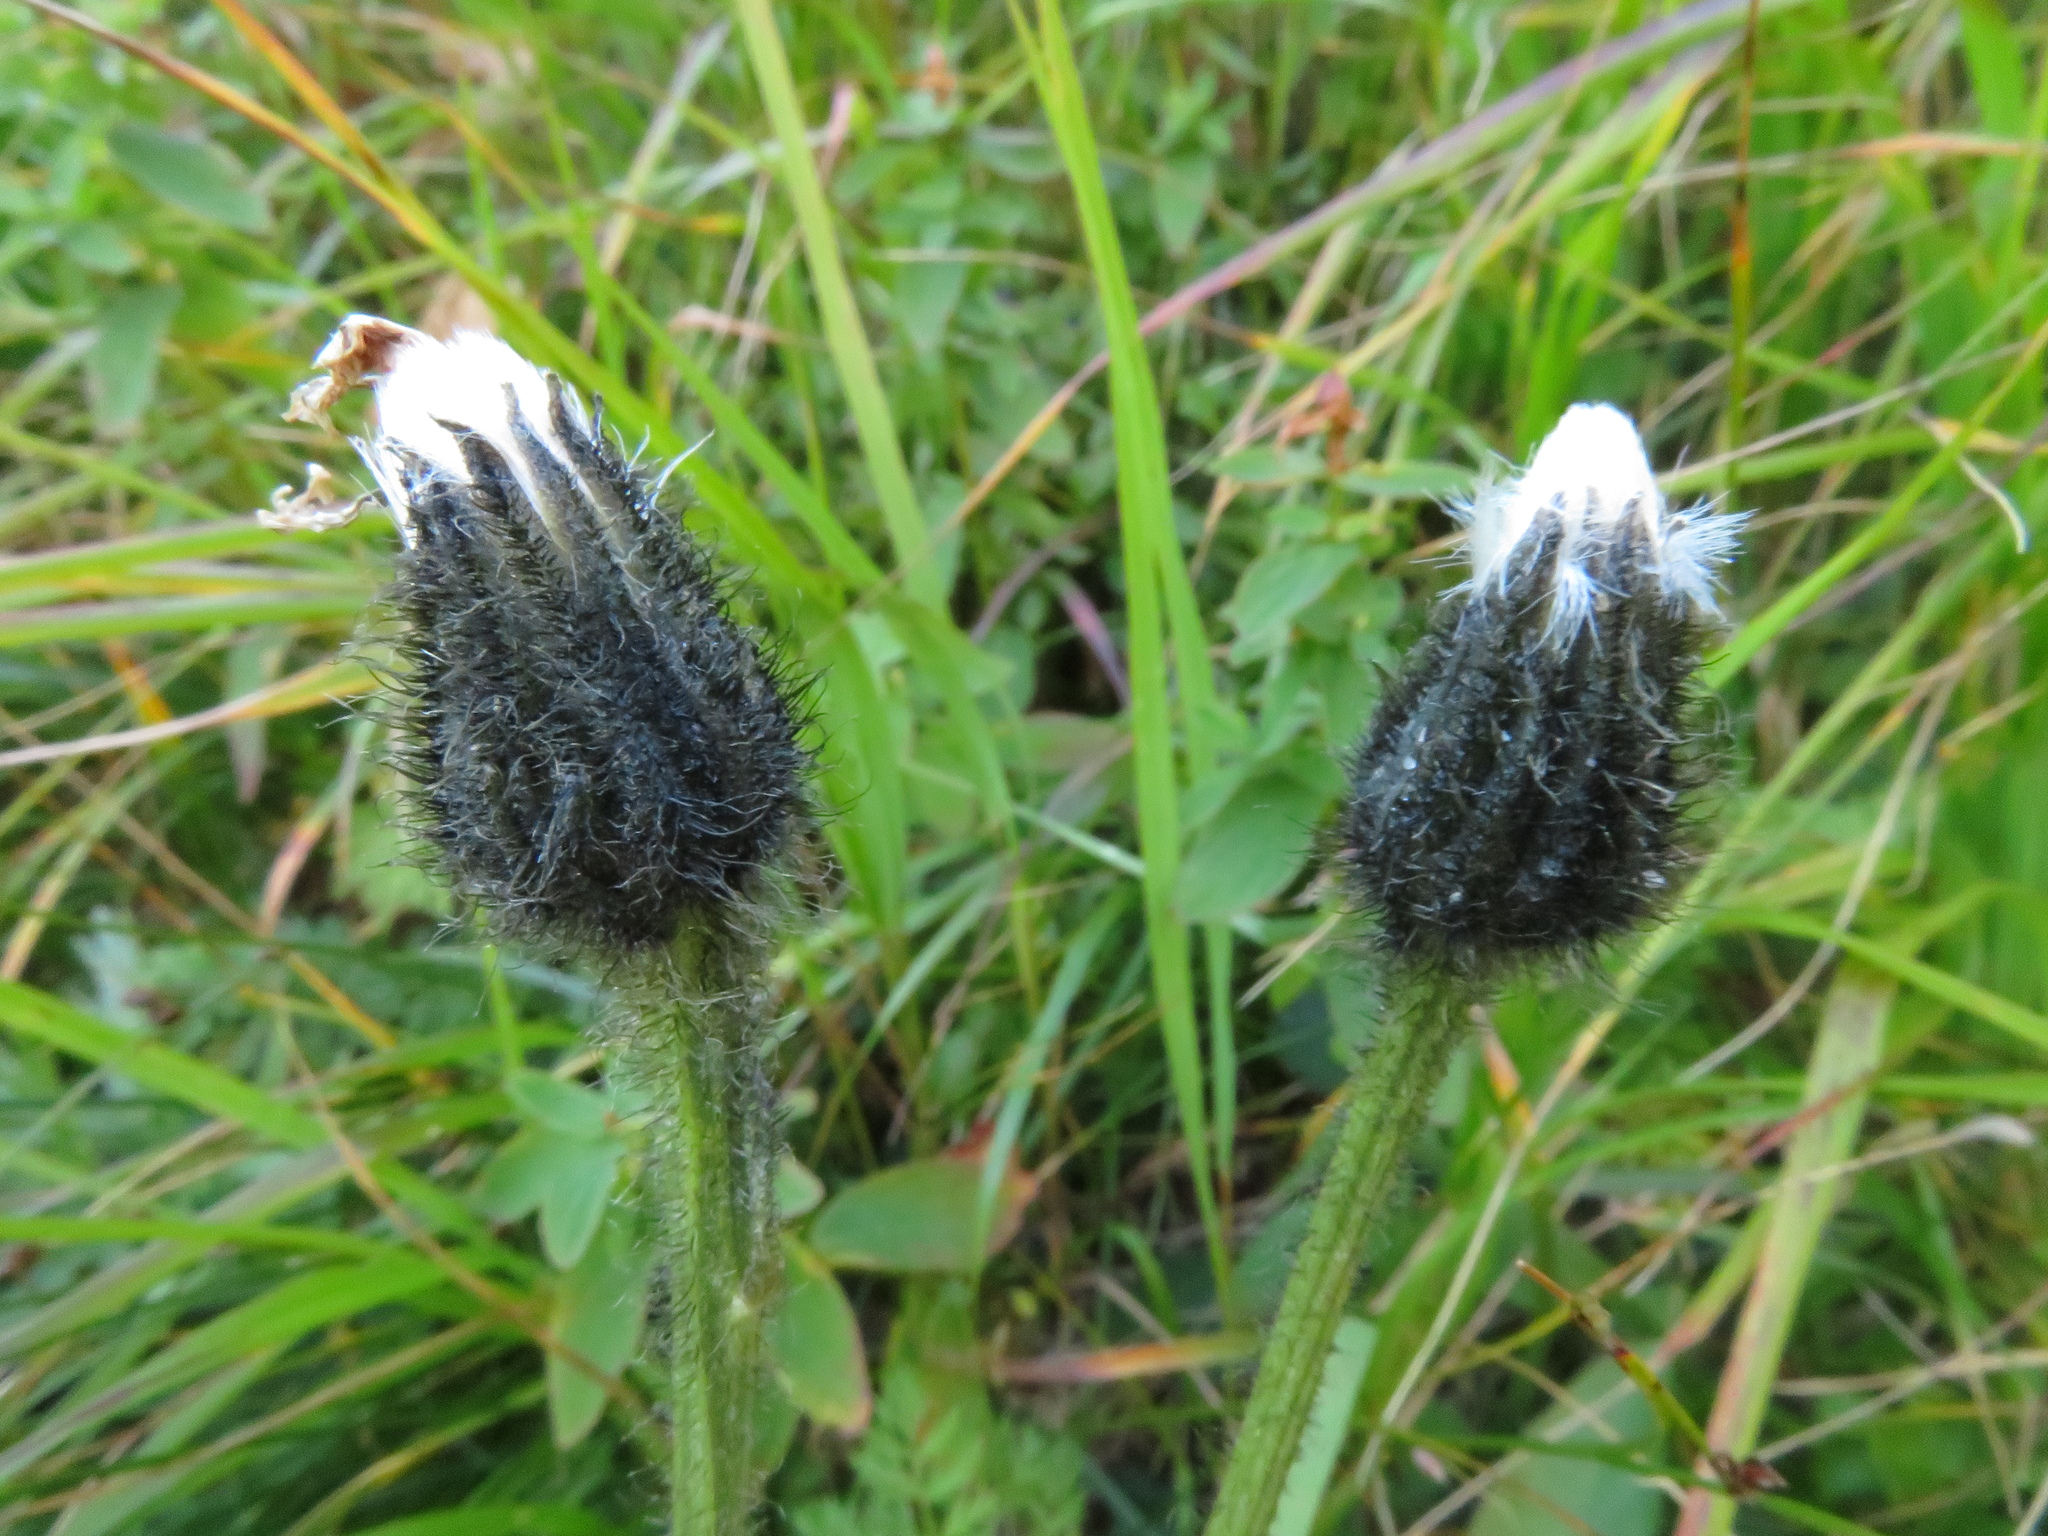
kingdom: Plantae
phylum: Tracheophyta
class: Magnoliopsida
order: Asterales
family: Asteraceae
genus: Crepis
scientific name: Crepis conyzifolia
